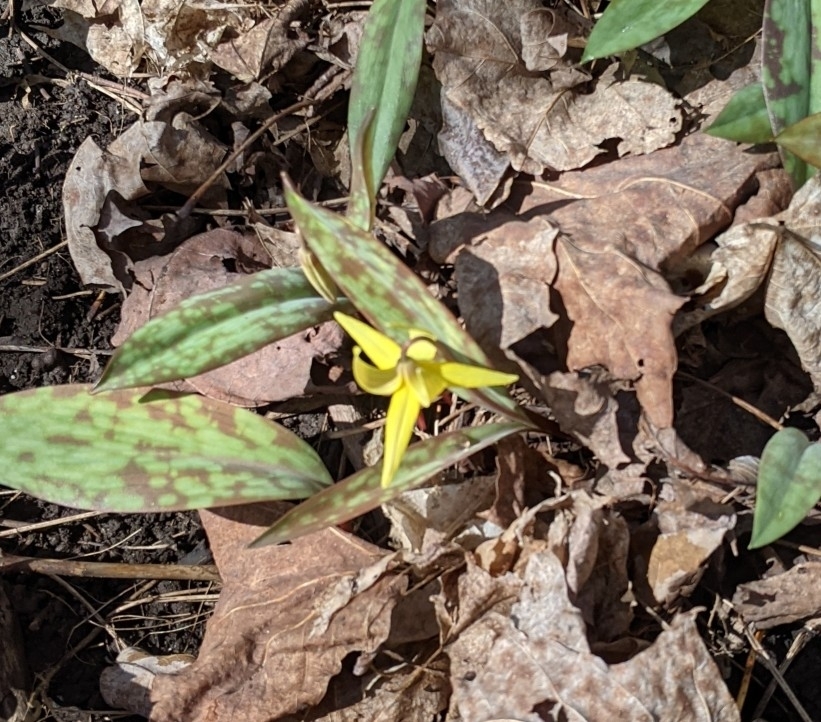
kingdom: Plantae
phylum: Tracheophyta
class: Liliopsida
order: Liliales
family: Liliaceae
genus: Erythronium
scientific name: Erythronium americanum
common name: Yellow adder's-tongue
